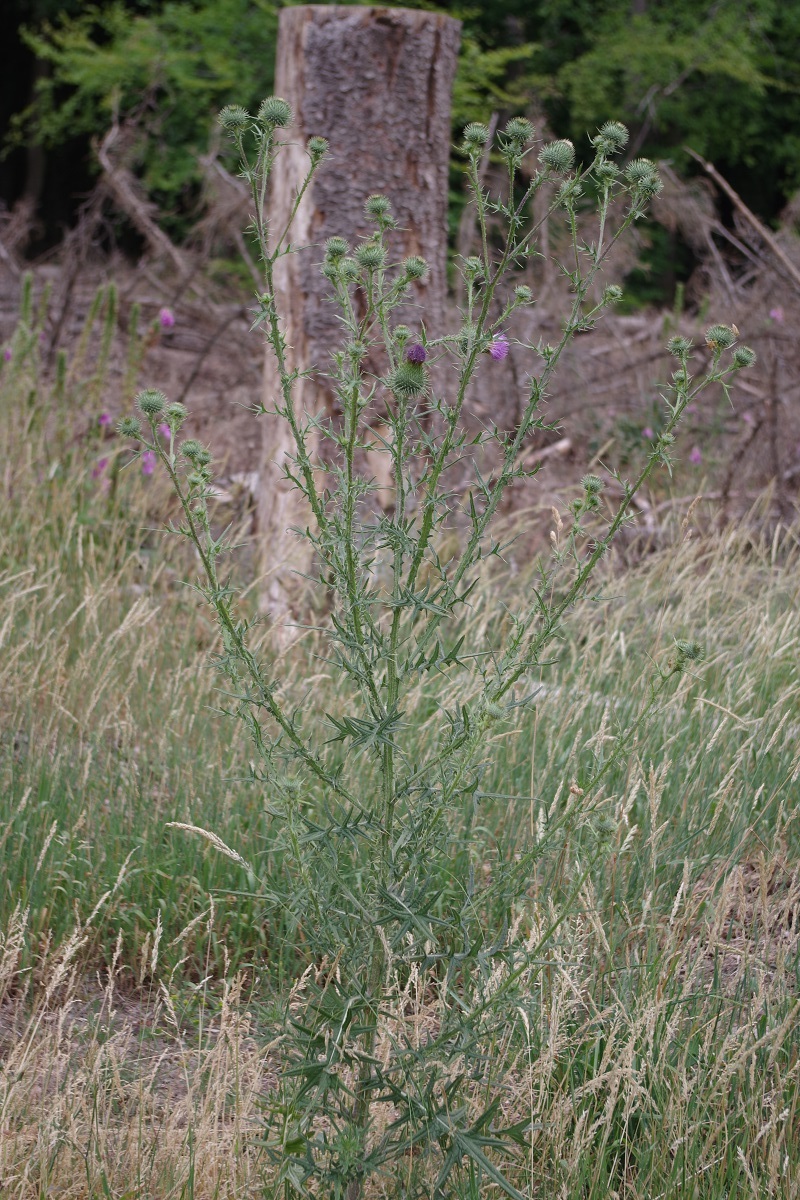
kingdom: Plantae
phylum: Tracheophyta
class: Magnoliopsida
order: Asterales
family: Asteraceae
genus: Cirsium
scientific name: Cirsium vulgare
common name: Bull thistle
